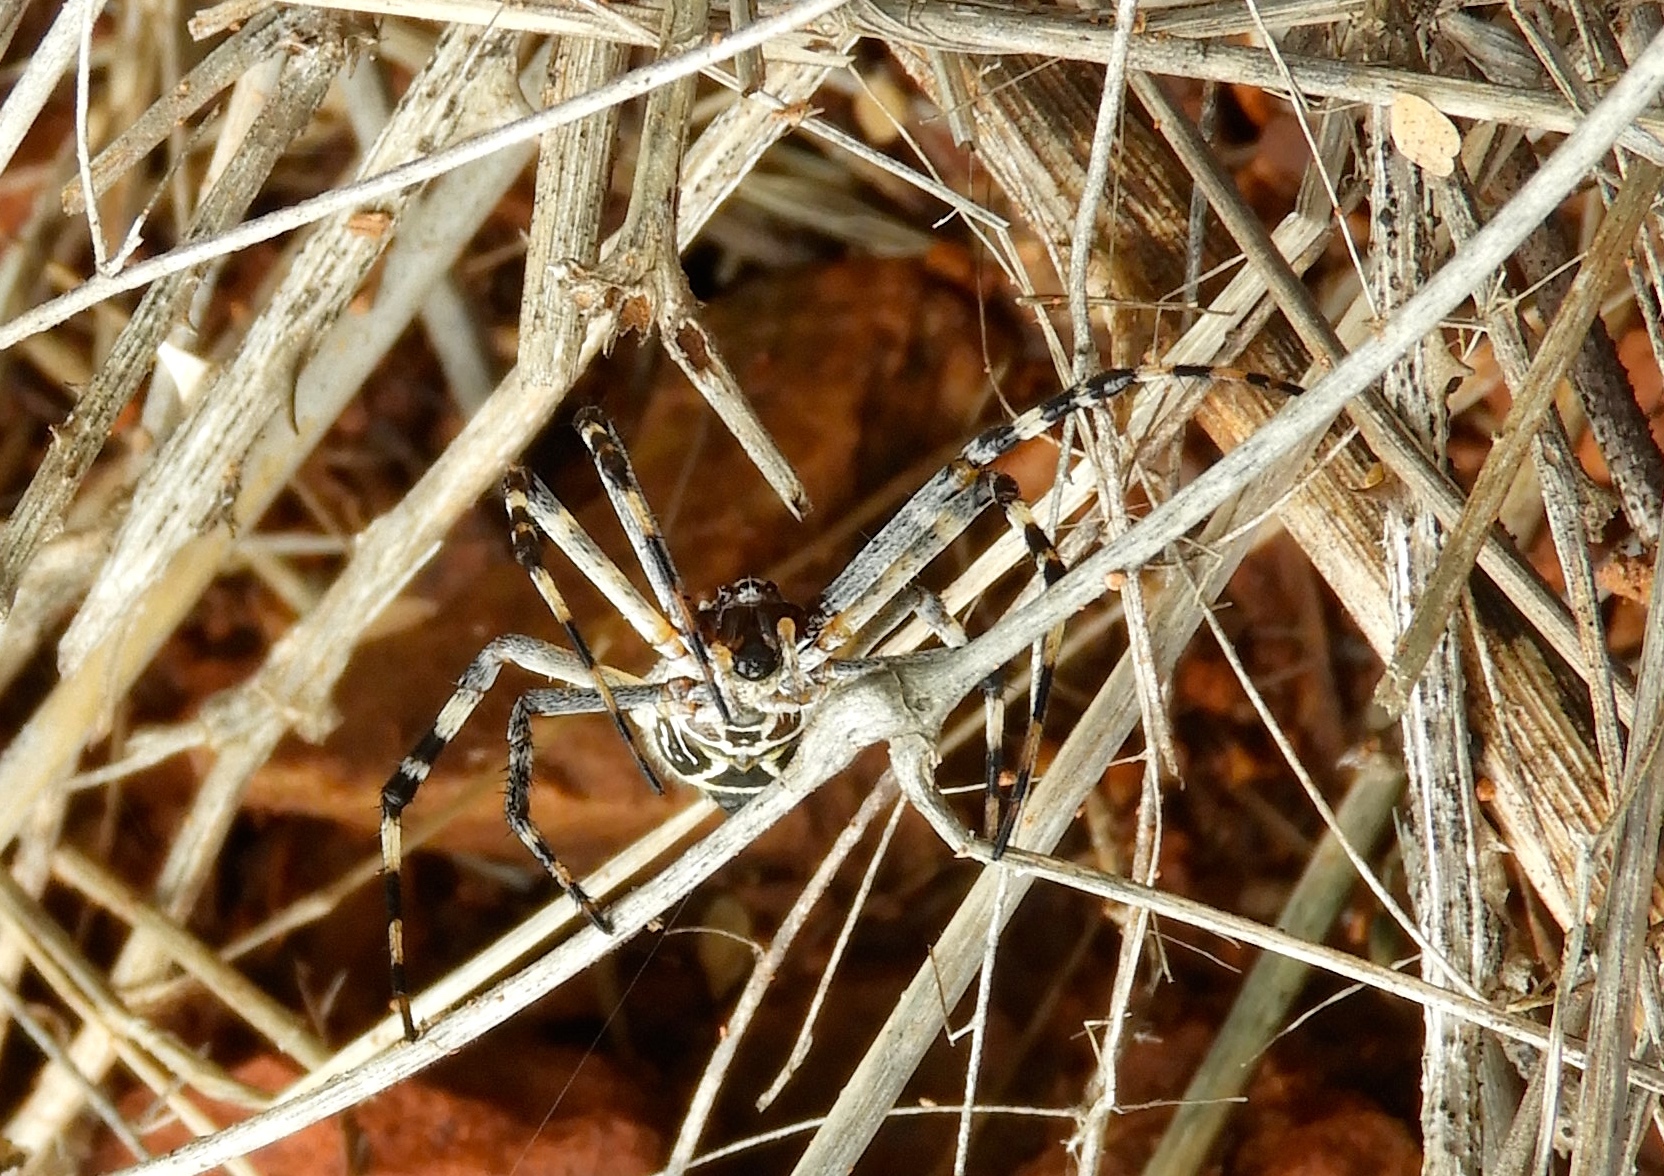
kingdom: Animalia
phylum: Arthropoda
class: Arachnida
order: Araneae
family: Araneidae
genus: Argiope
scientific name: Argiope argentata
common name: Orb weavers
